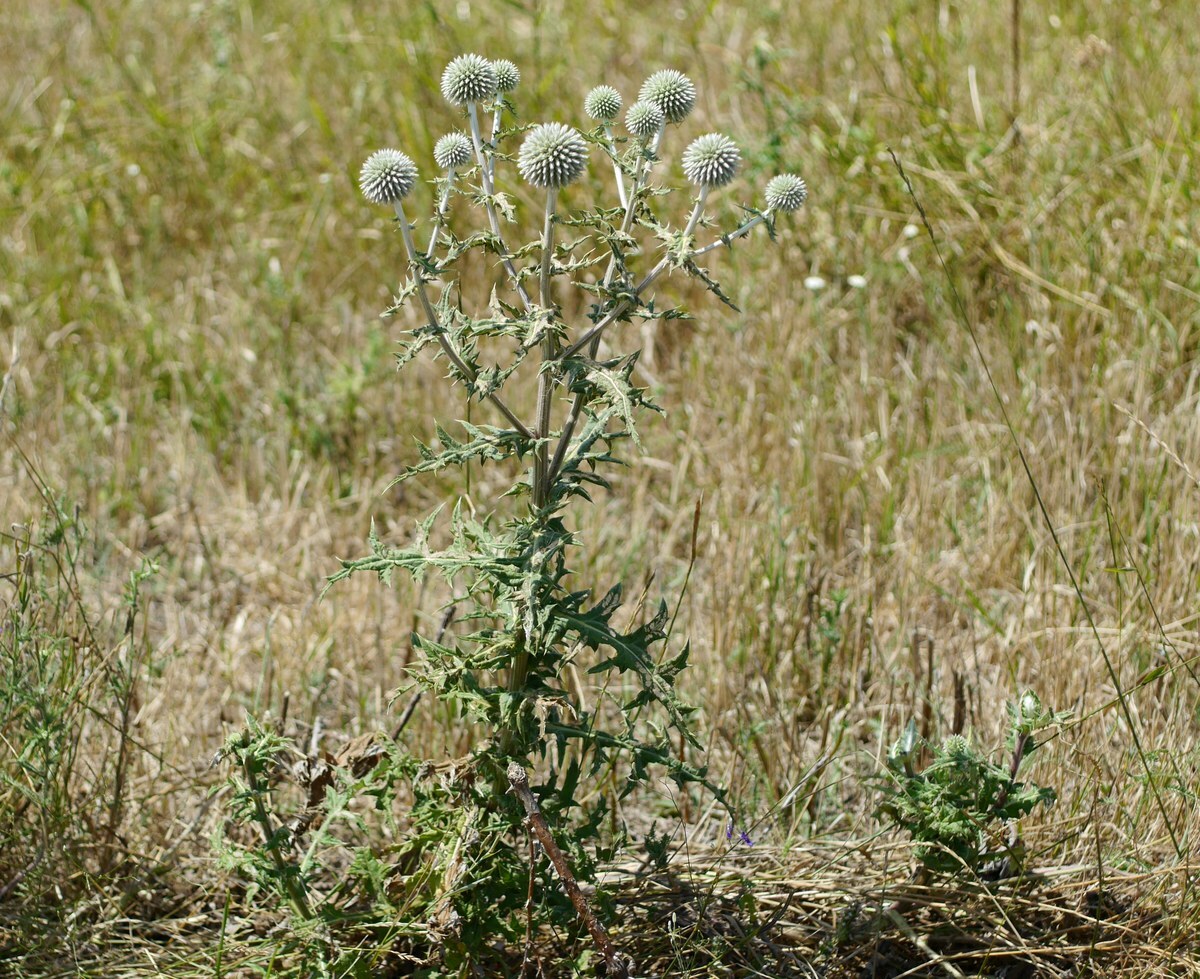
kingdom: Plantae
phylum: Tracheophyta
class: Magnoliopsida
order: Asterales
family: Asteraceae
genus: Echinops
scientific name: Echinops sphaerocephalus
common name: Glandular globe-thistle
